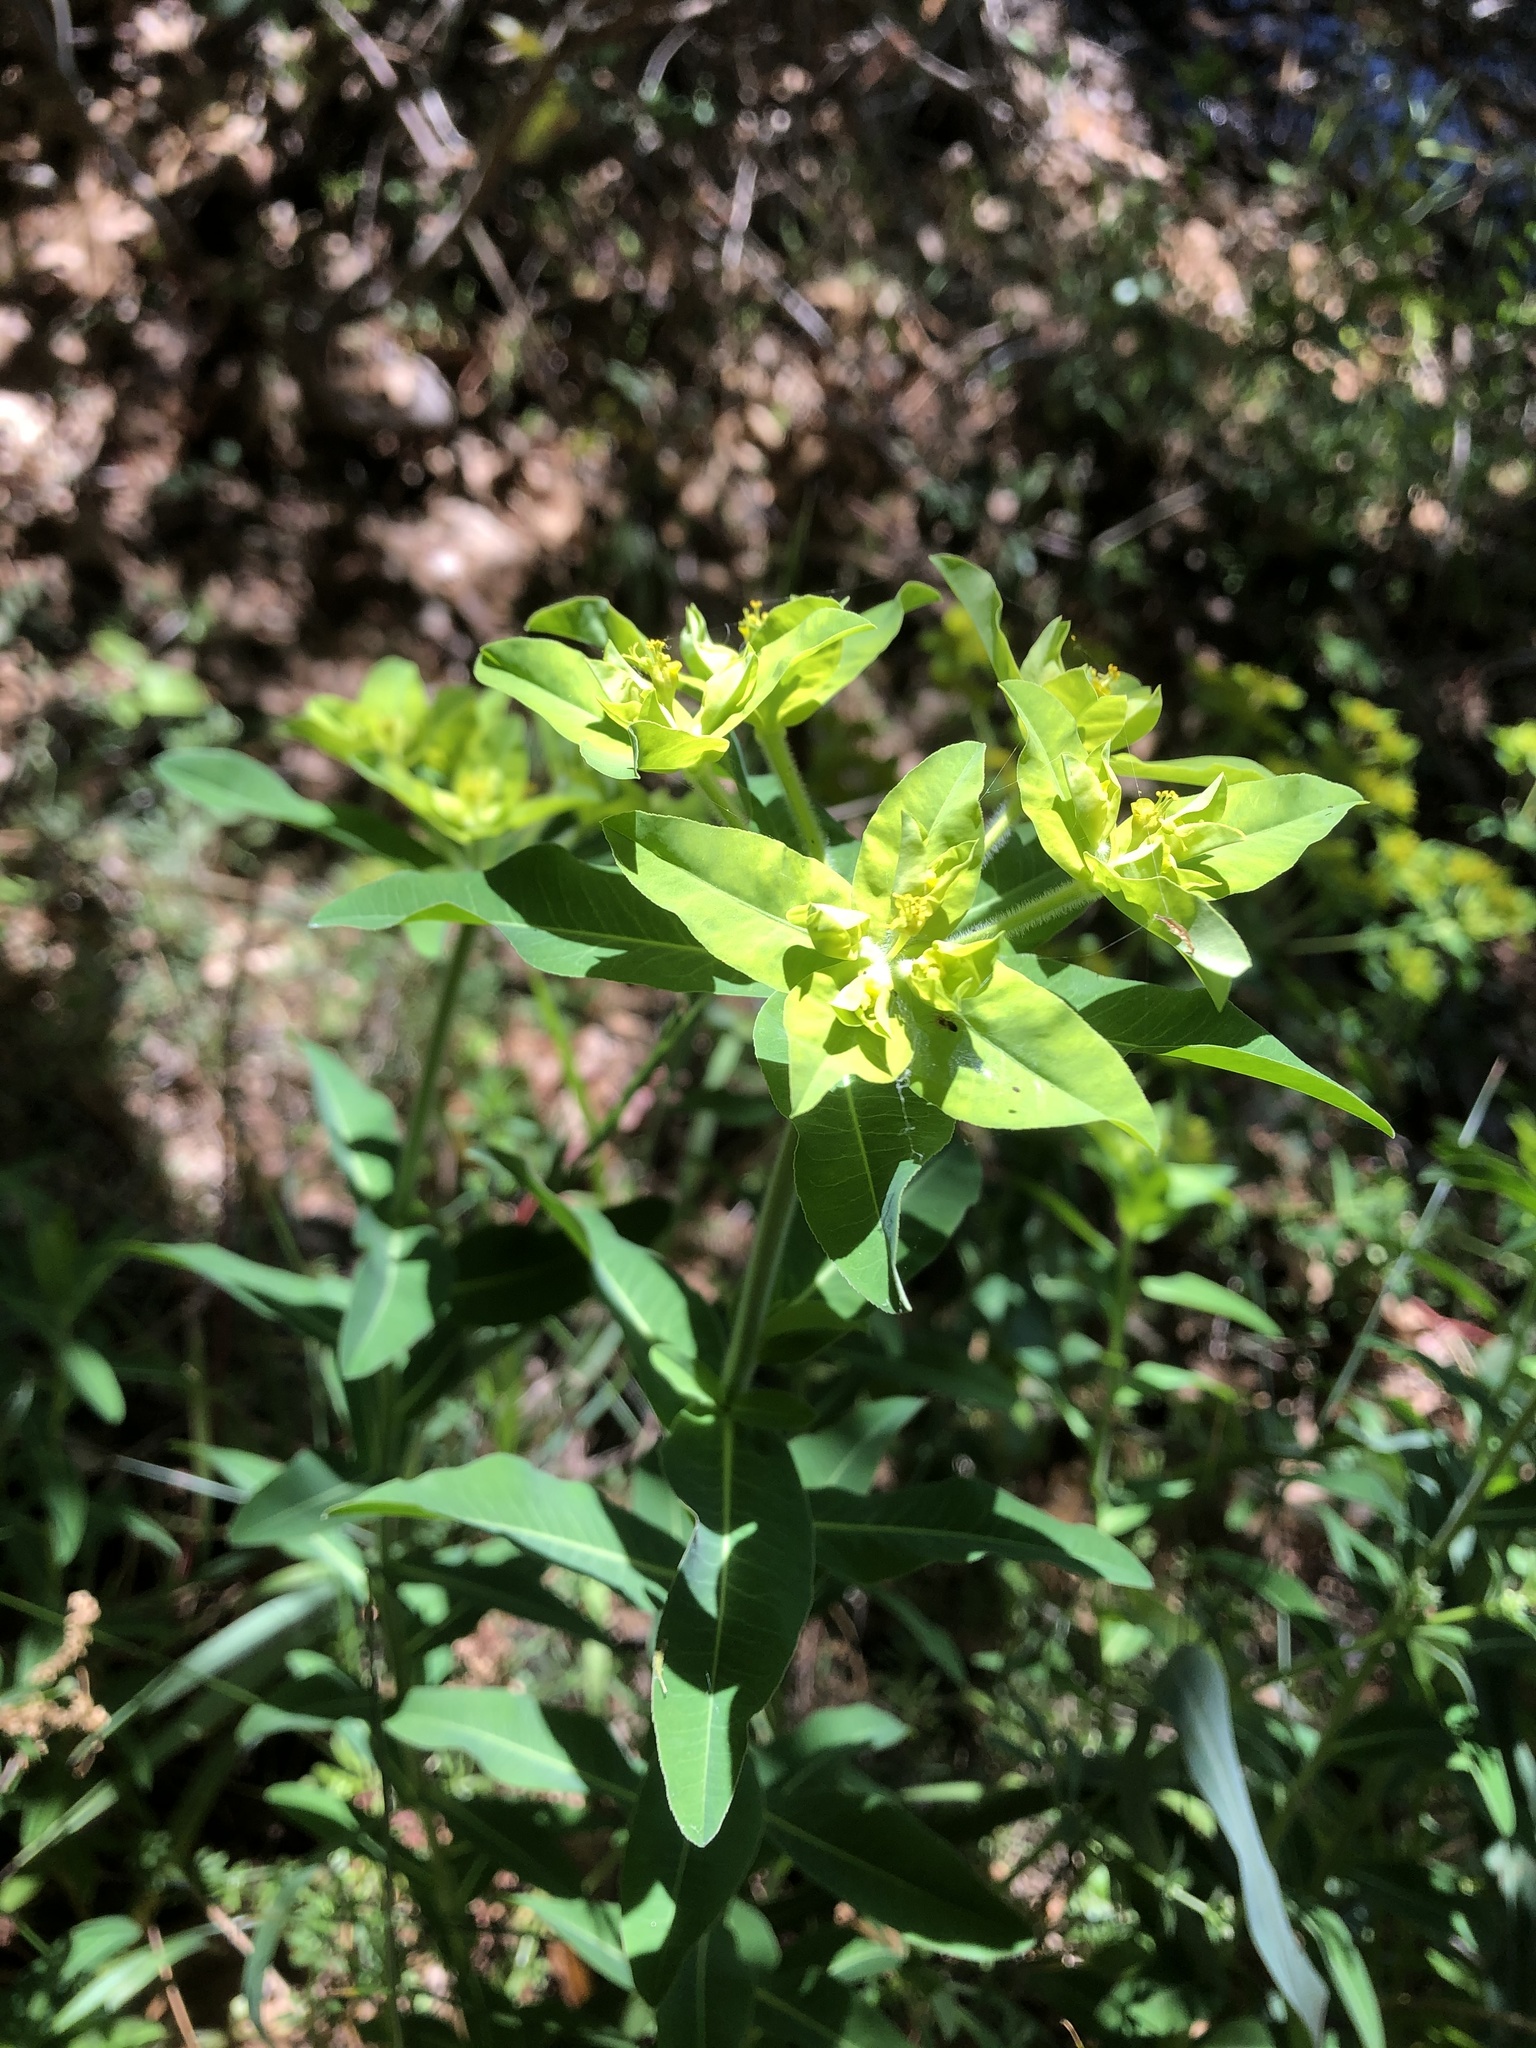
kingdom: Plantae
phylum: Tracheophyta
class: Magnoliopsida
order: Malpighiales
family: Euphorbiaceae
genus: Euphorbia
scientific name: Euphorbia oblongata
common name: Balkan spurge
